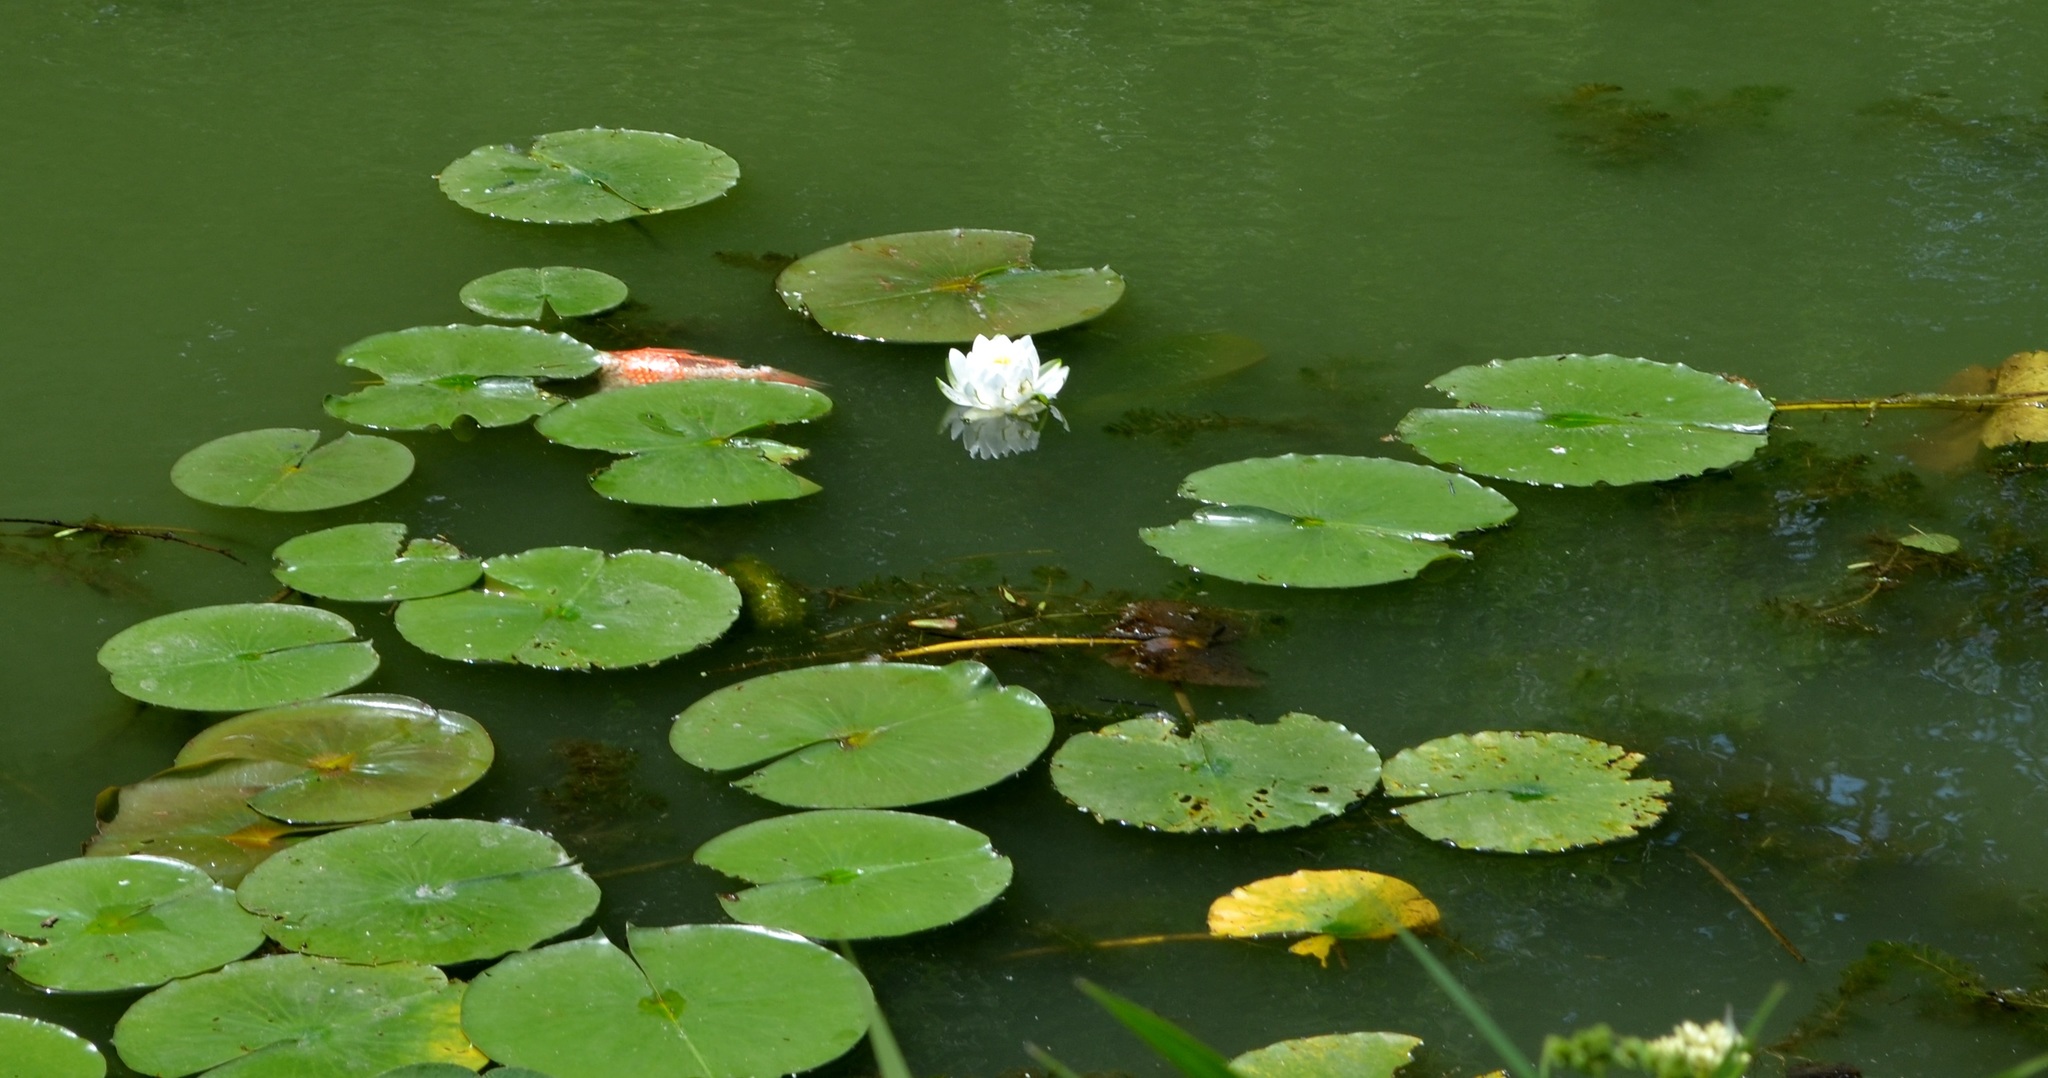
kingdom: Plantae
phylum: Tracheophyta
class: Magnoliopsida
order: Nymphaeales
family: Nymphaeaceae
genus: Nymphaea
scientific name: Nymphaea odorata
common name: Fragrant water-lily
